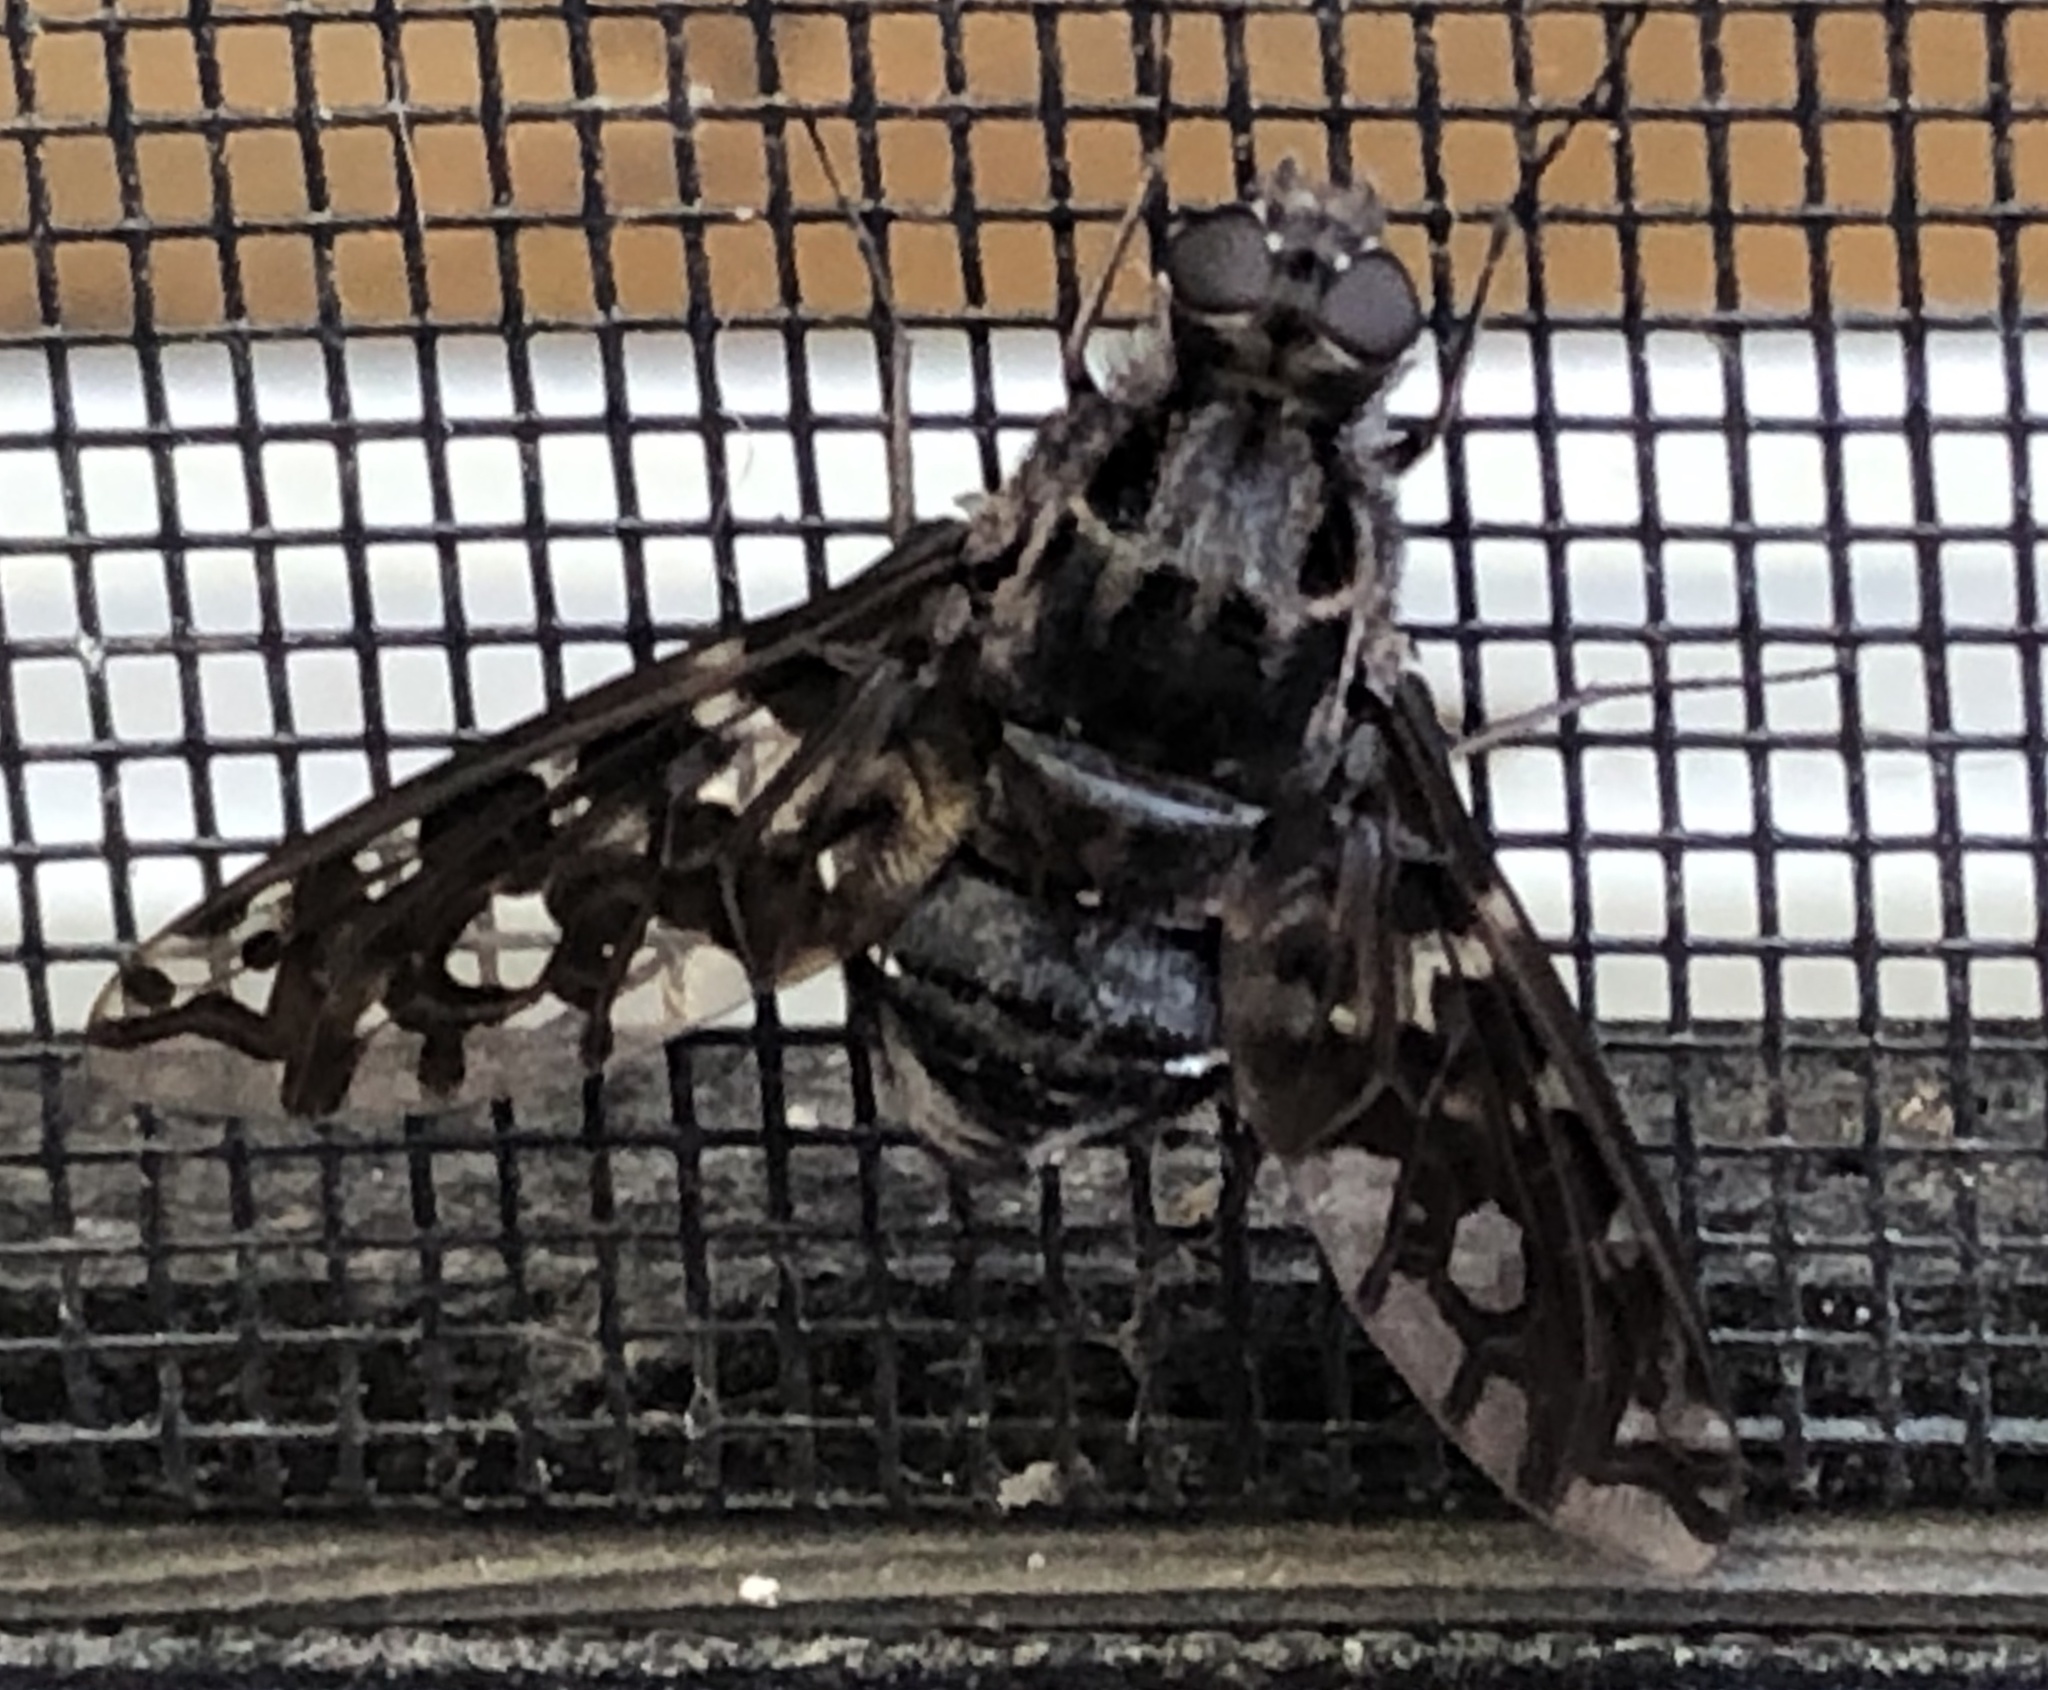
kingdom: Animalia
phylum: Arthropoda
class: Insecta
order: Diptera
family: Bombyliidae
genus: Xenox
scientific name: Xenox tigrinus
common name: Tiger bee fly
